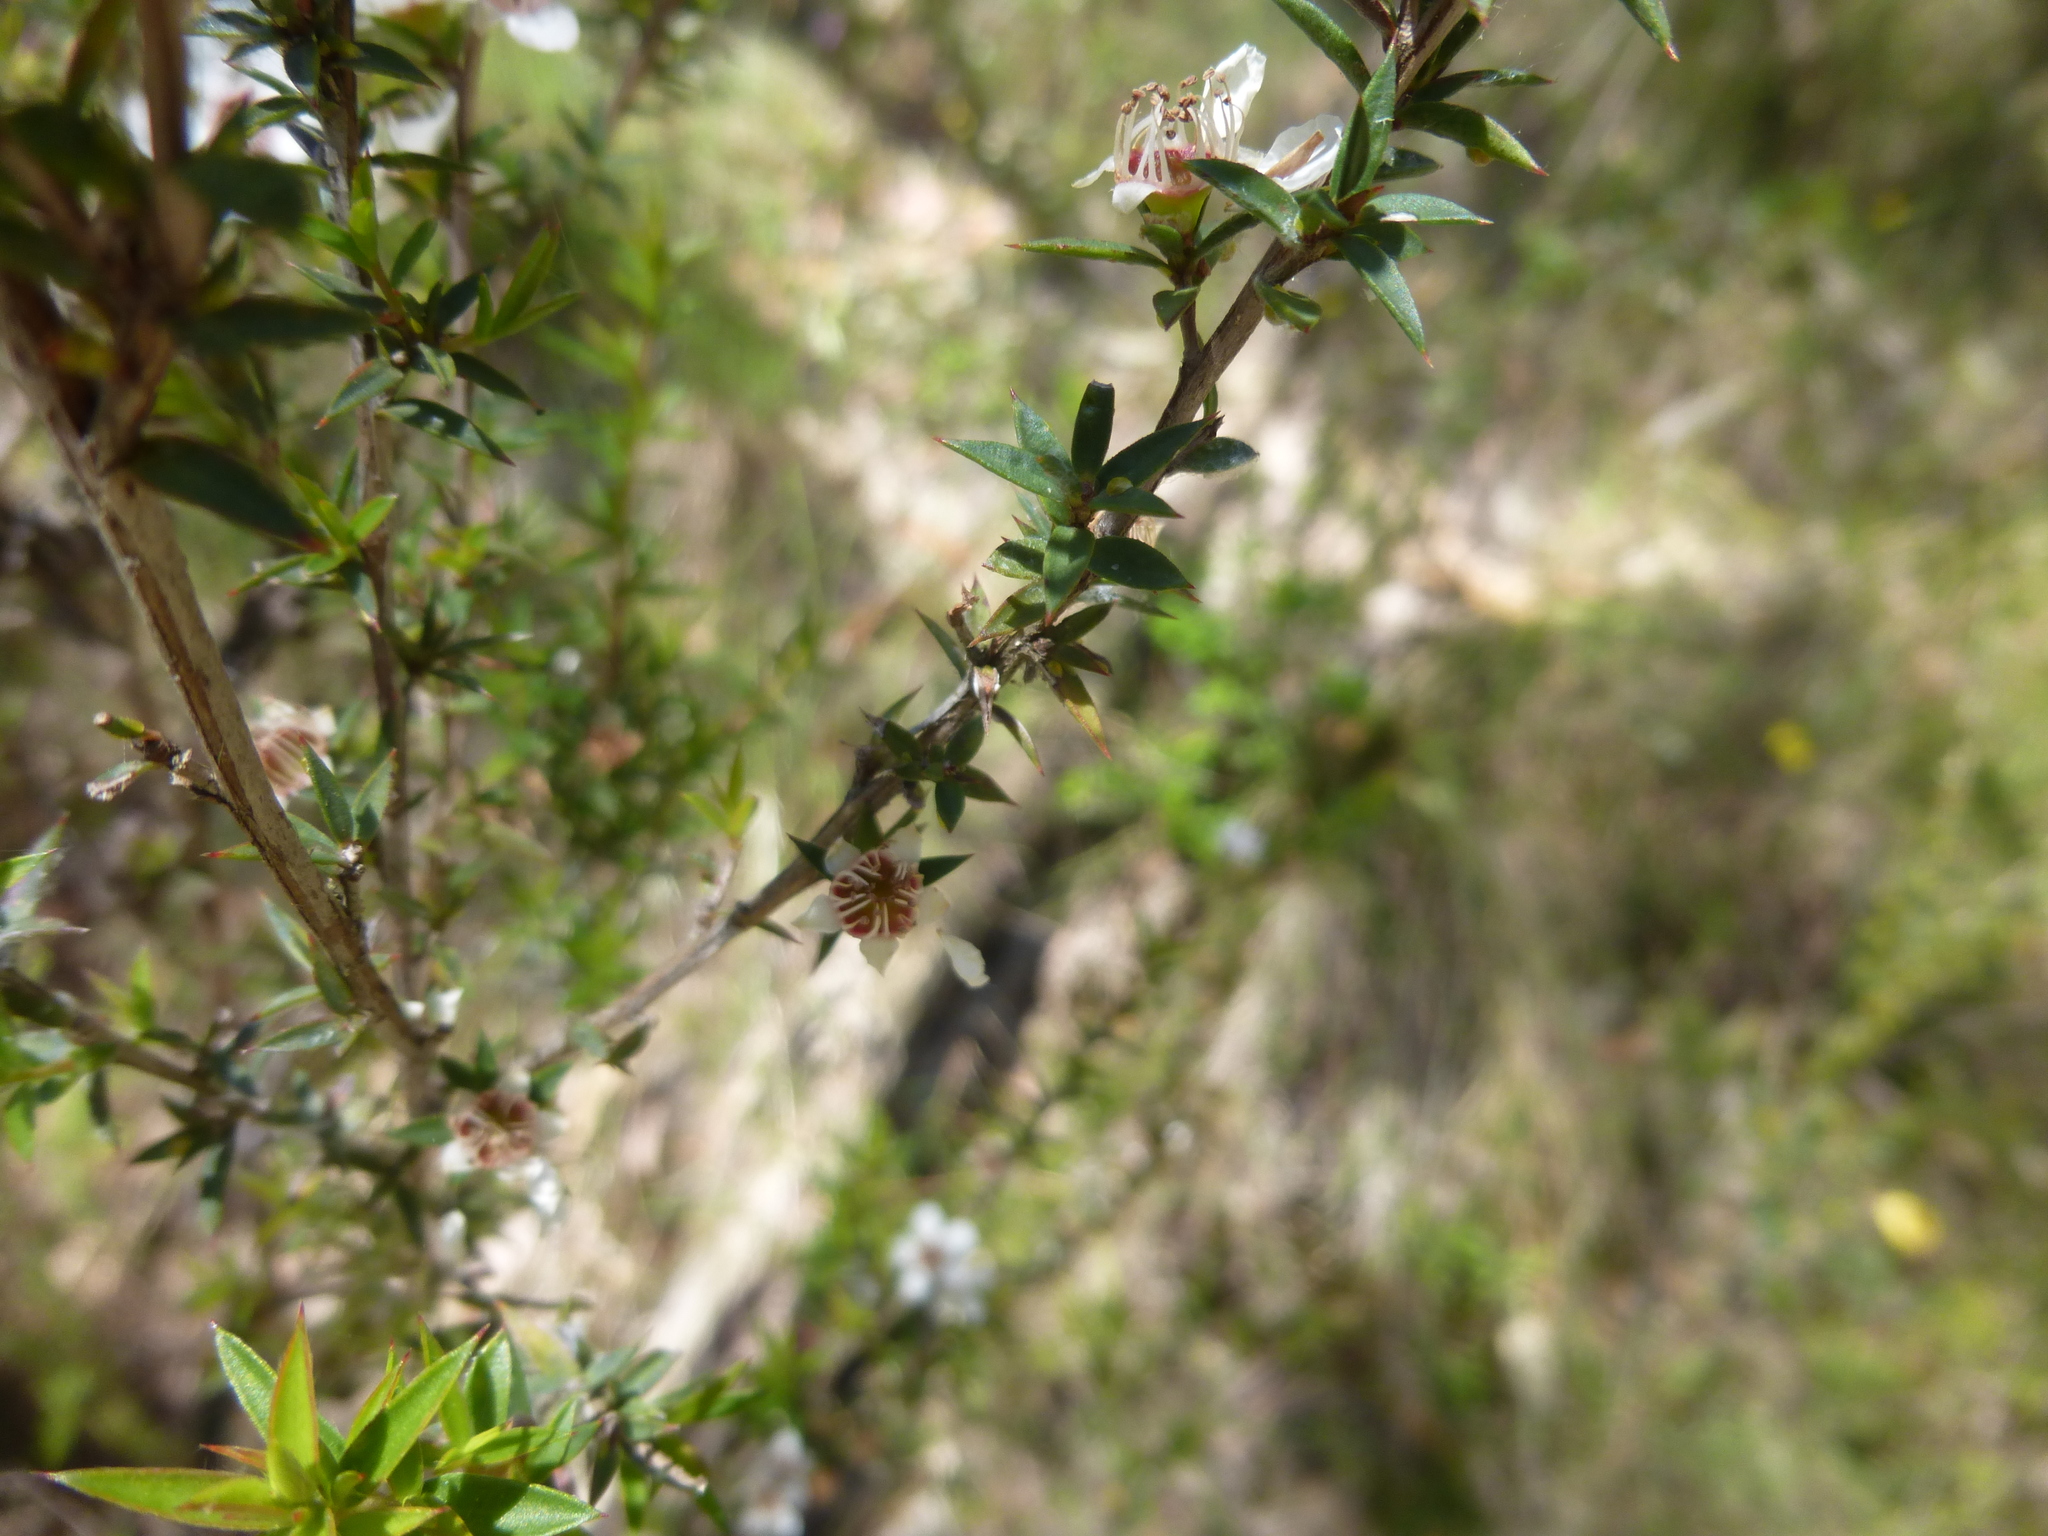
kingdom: Plantae
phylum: Tracheophyta
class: Magnoliopsida
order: Myrtales
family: Myrtaceae
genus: Leptospermum
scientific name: Leptospermum continentale
